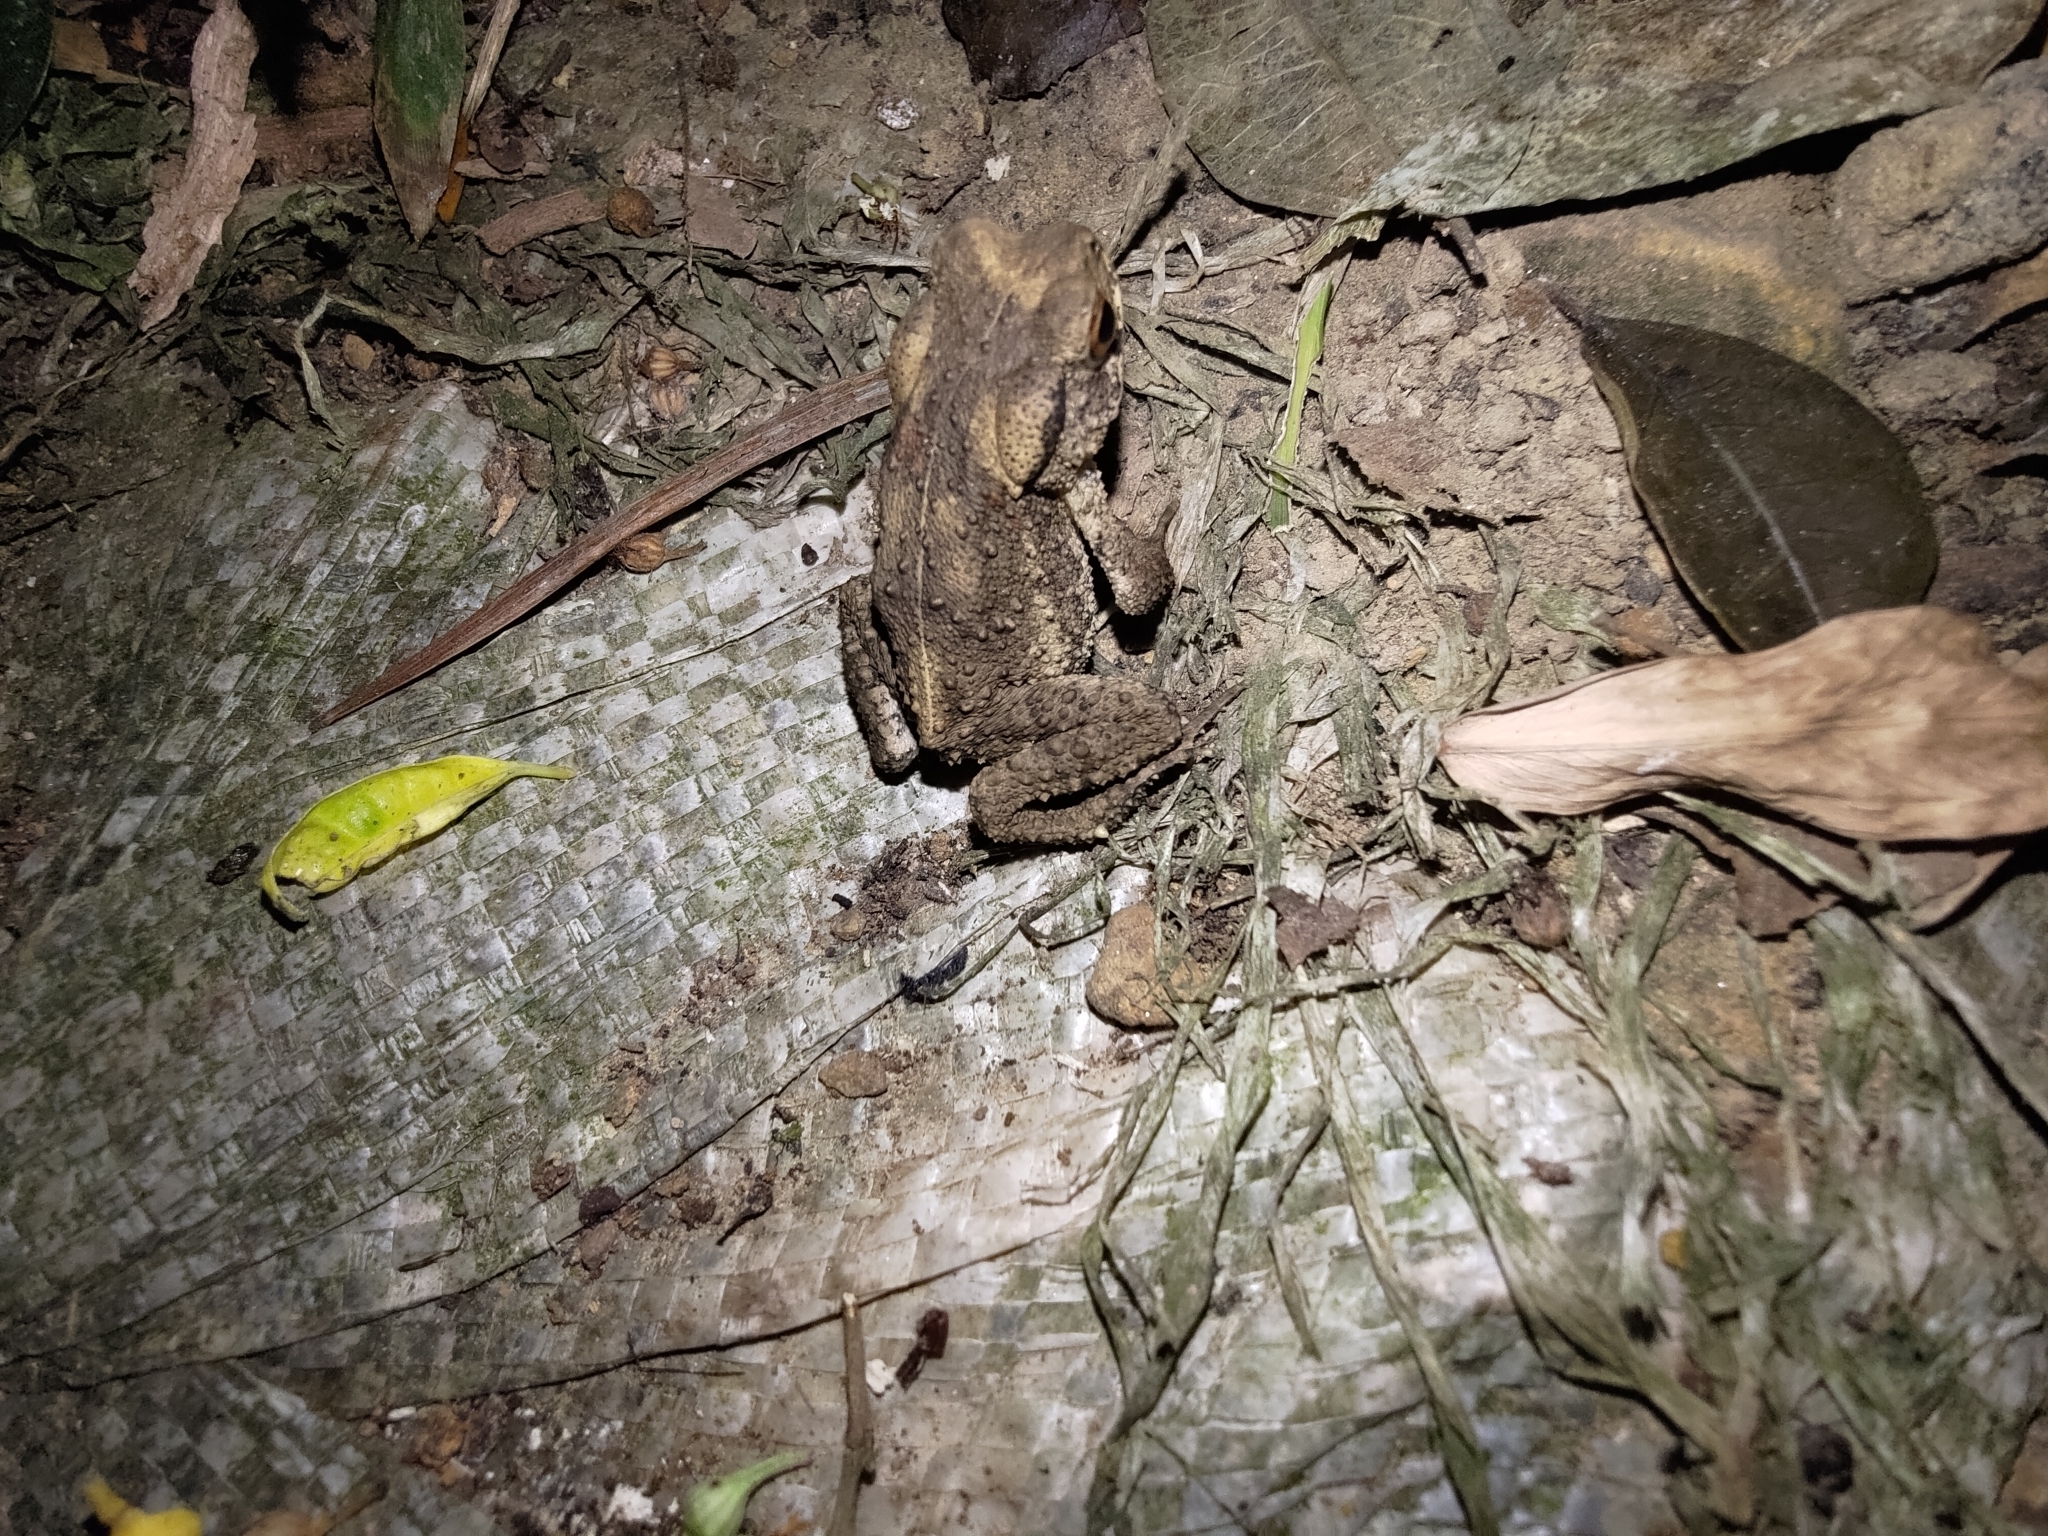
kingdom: Animalia
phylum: Chordata
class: Amphibia
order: Anura
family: Bufonidae
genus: Bufo
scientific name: Bufo bankorensis
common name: Bankor toad
